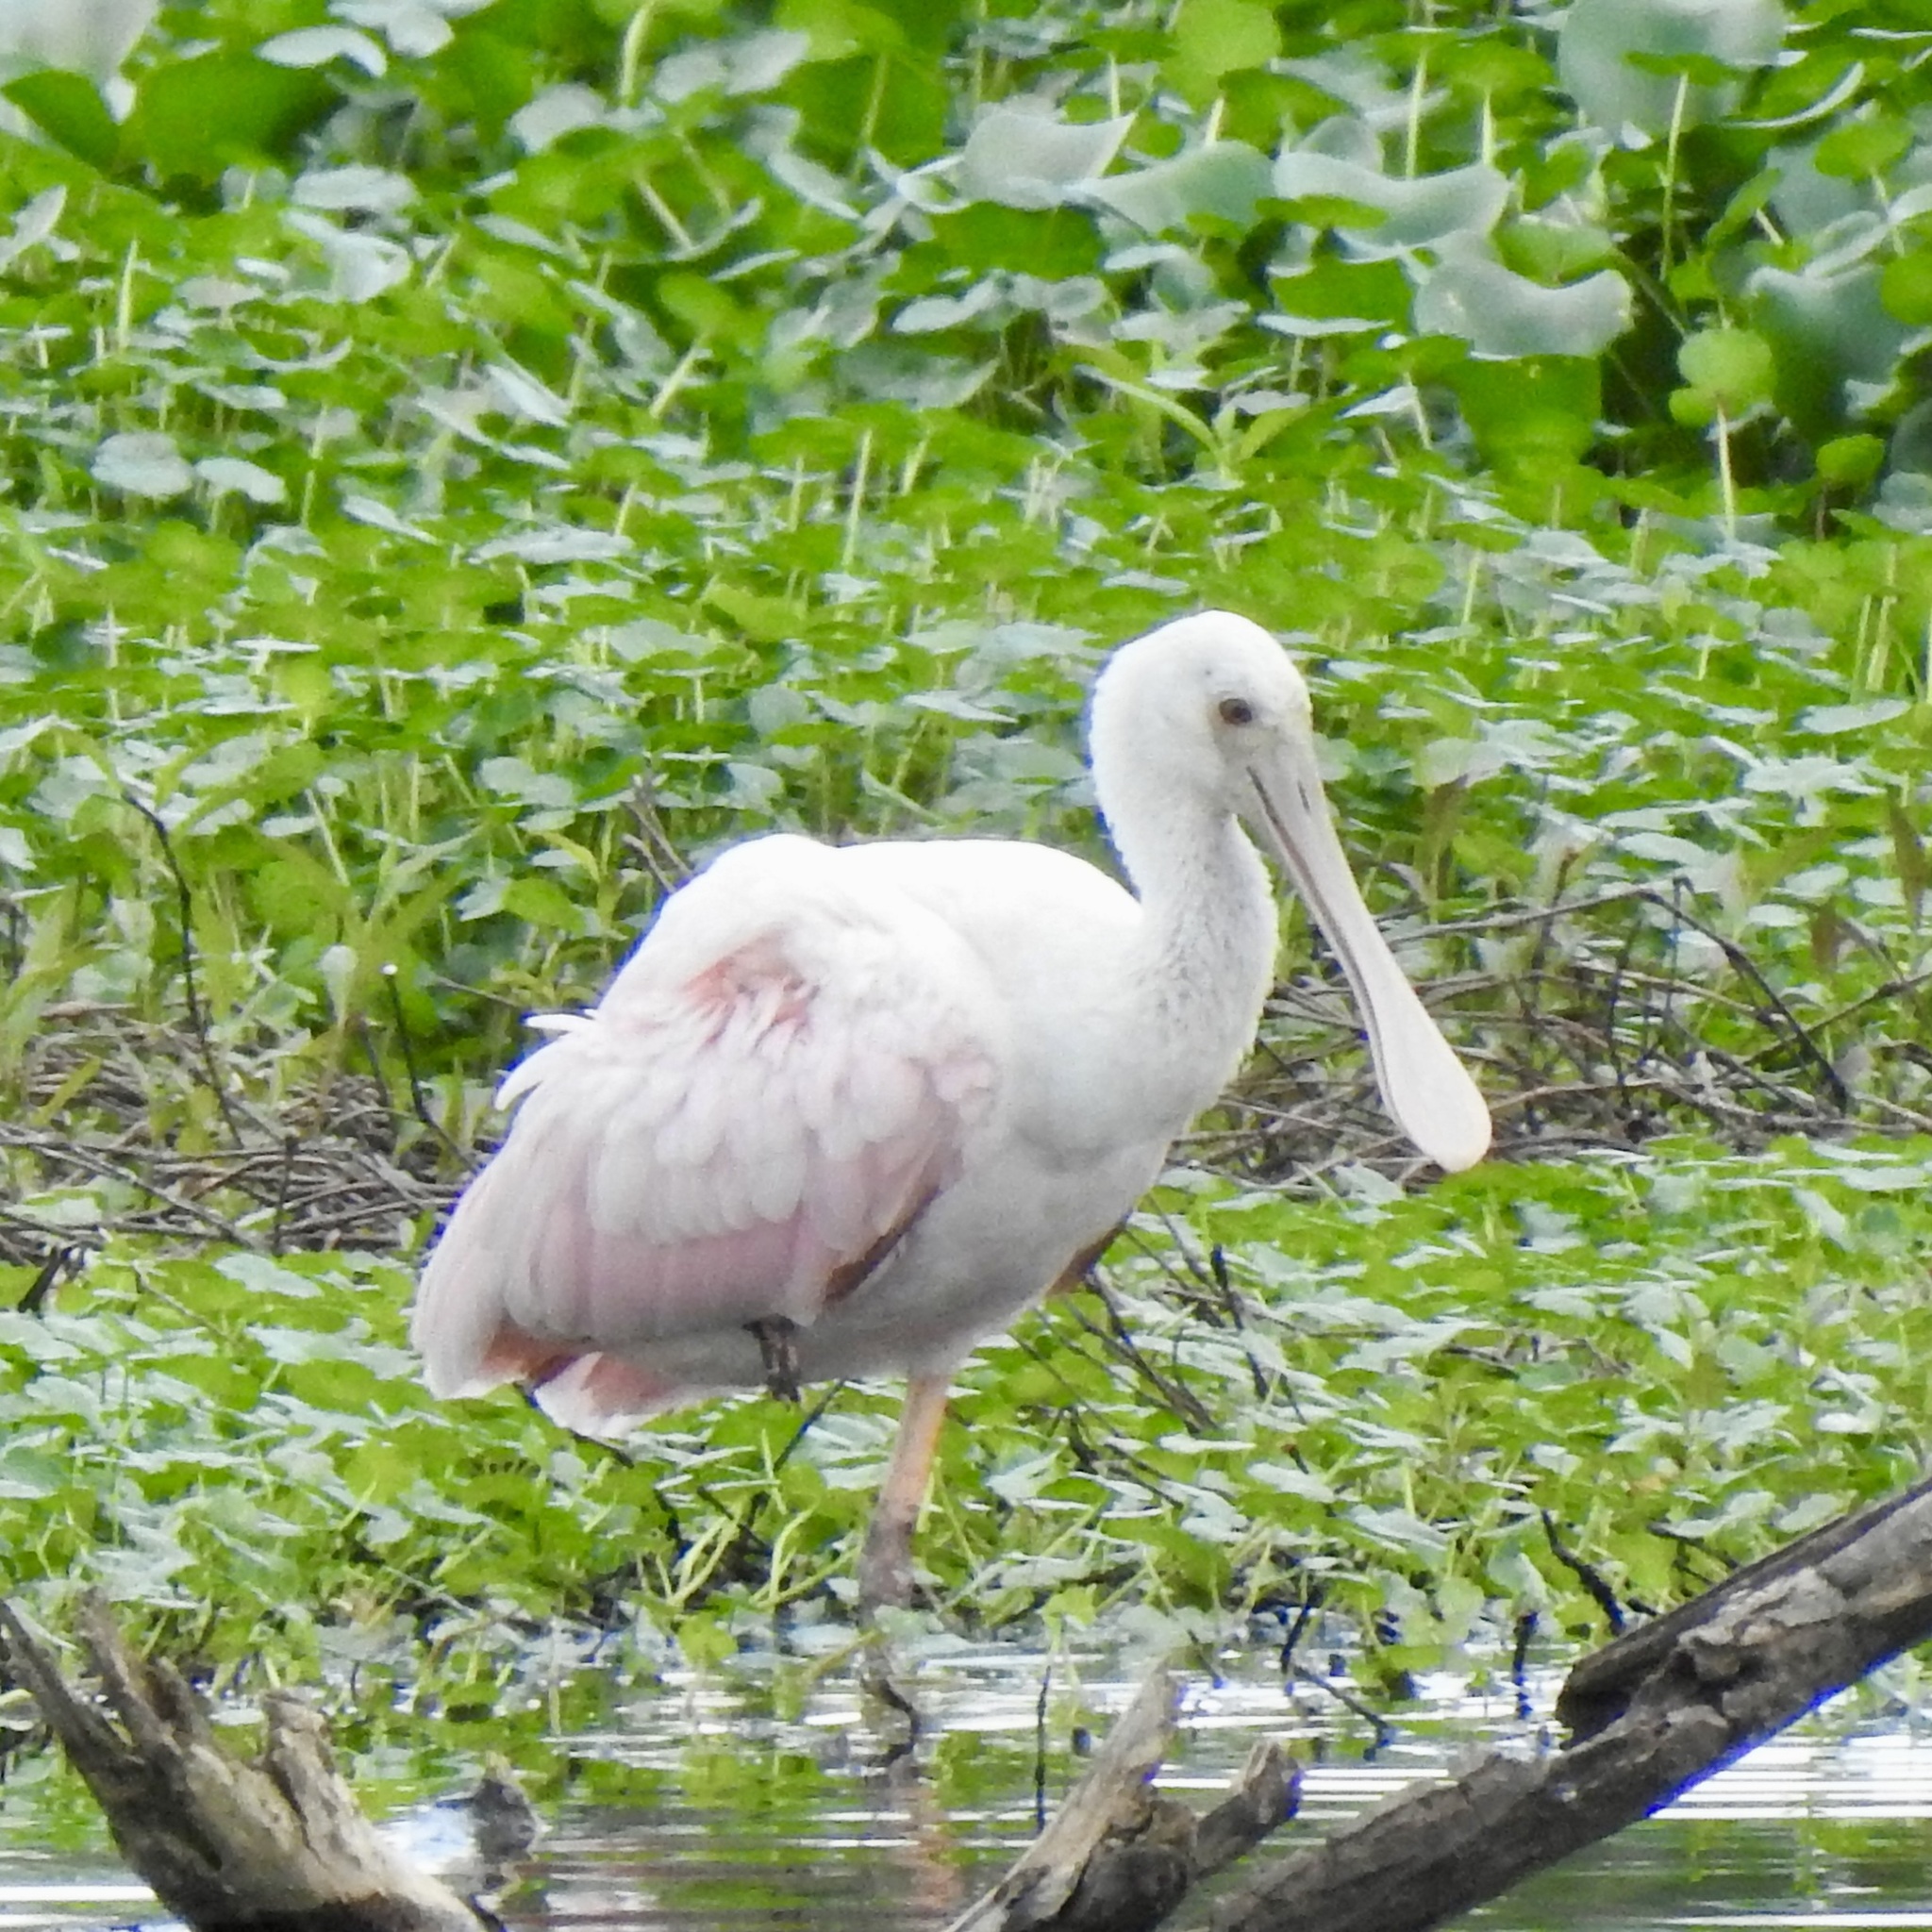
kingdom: Animalia
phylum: Chordata
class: Aves
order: Pelecaniformes
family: Threskiornithidae
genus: Platalea
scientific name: Platalea ajaja
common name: Roseate spoonbill
